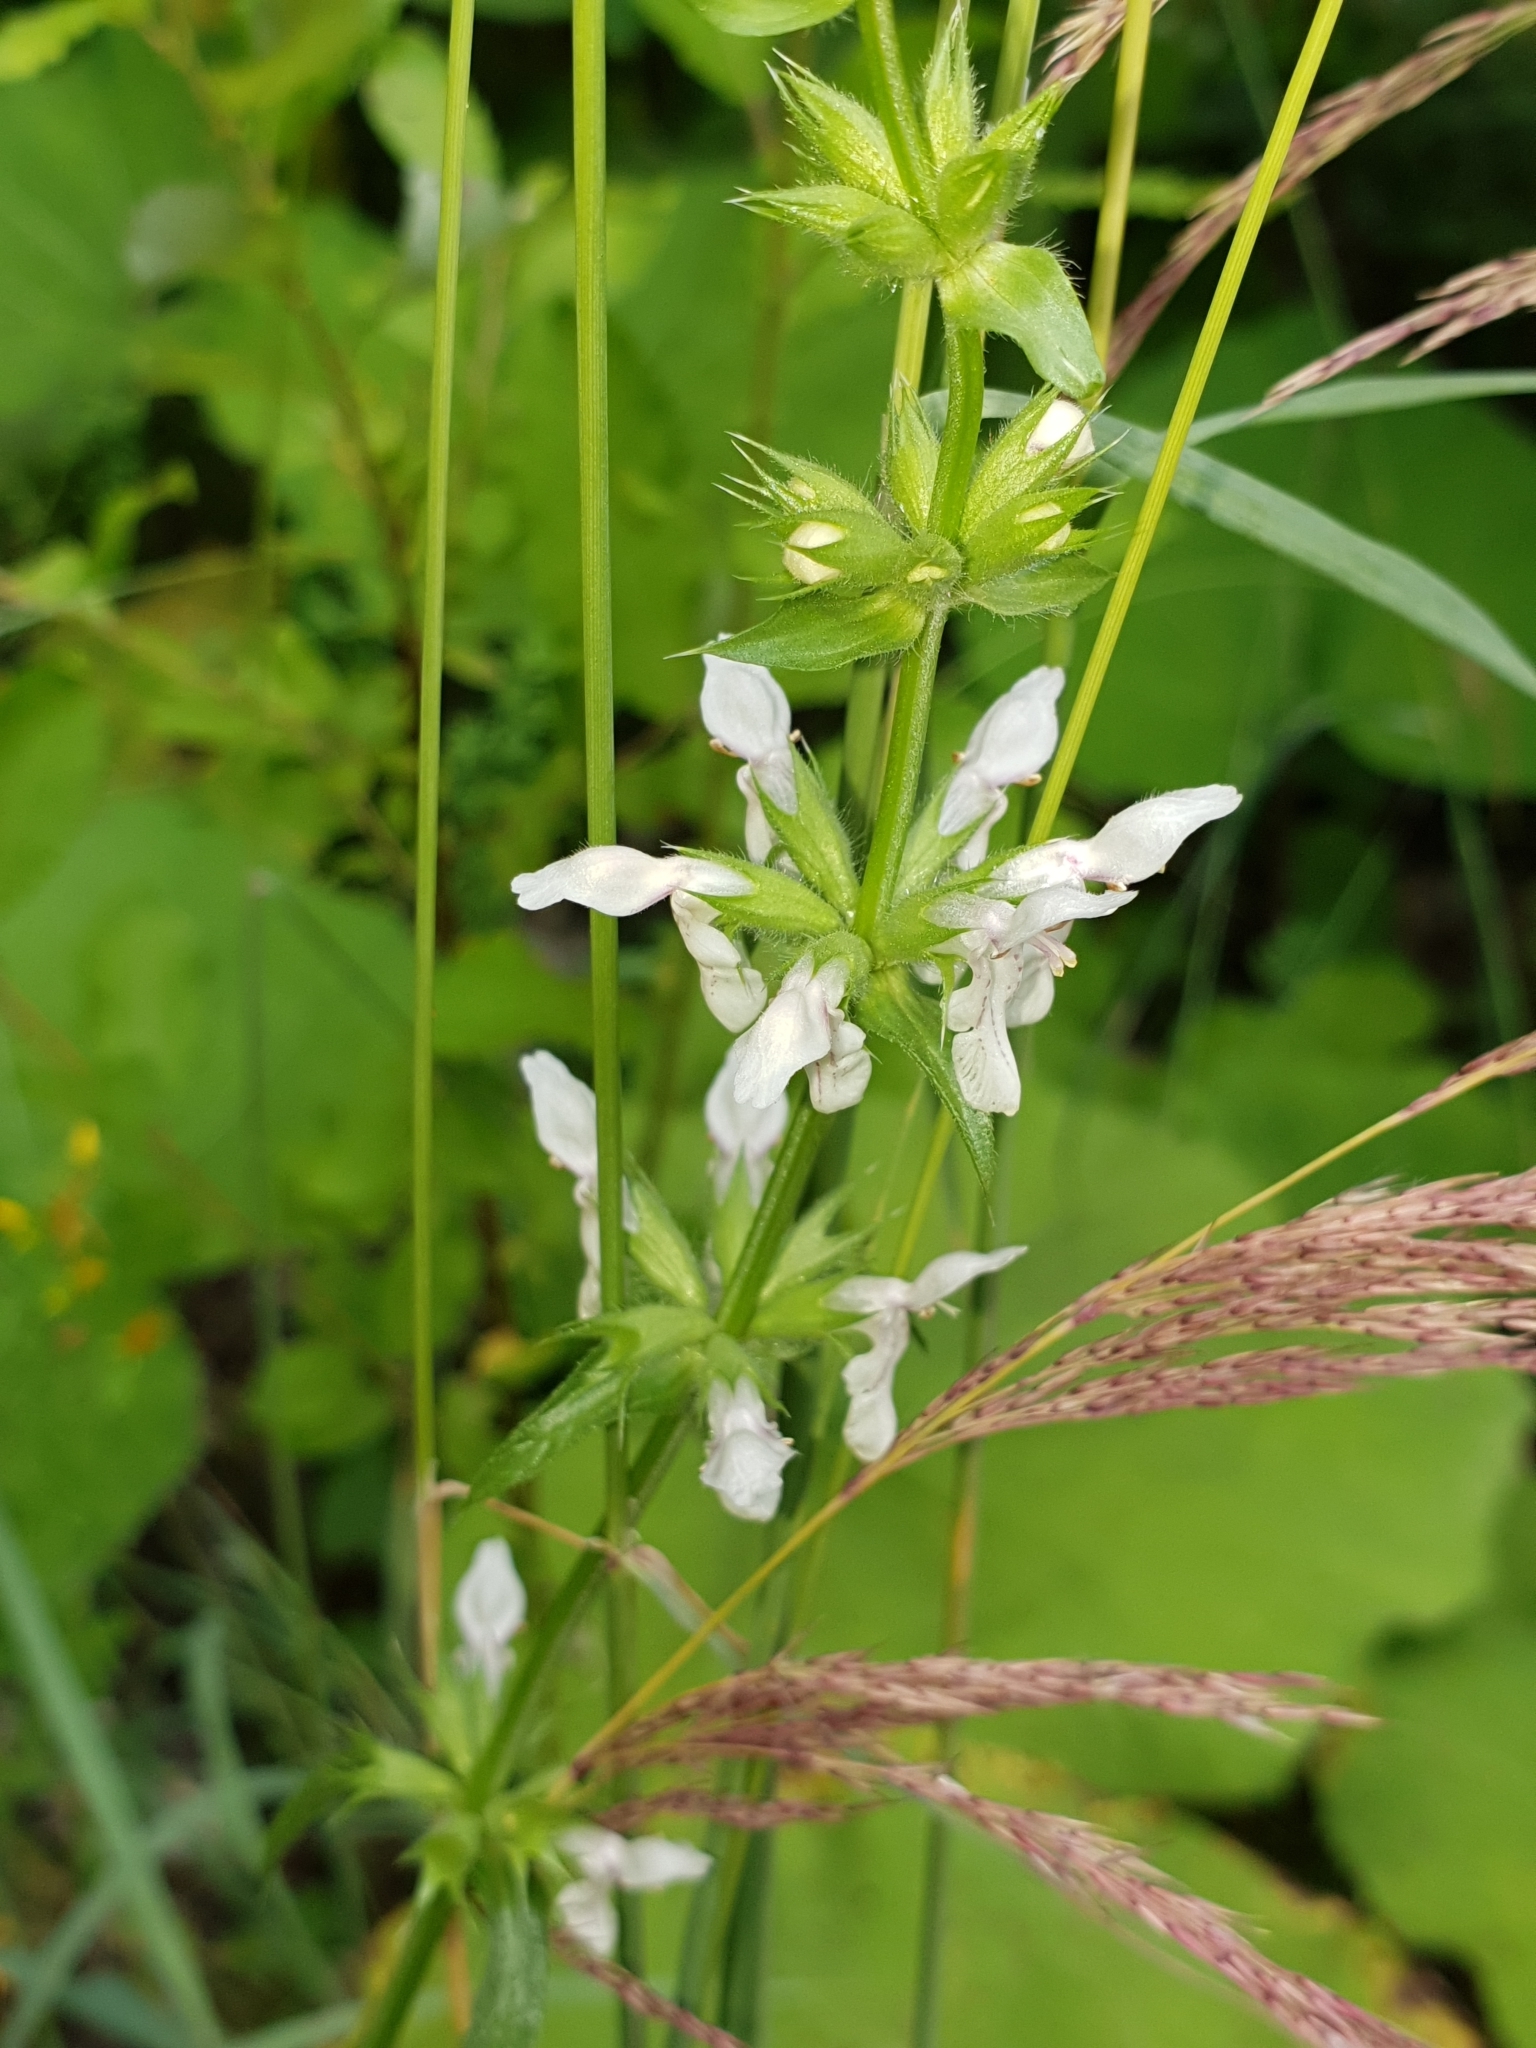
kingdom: Plantae
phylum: Tracheophyta
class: Magnoliopsida
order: Lamiales
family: Lamiaceae
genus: Stachys
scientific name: Stachys atherocalyx
